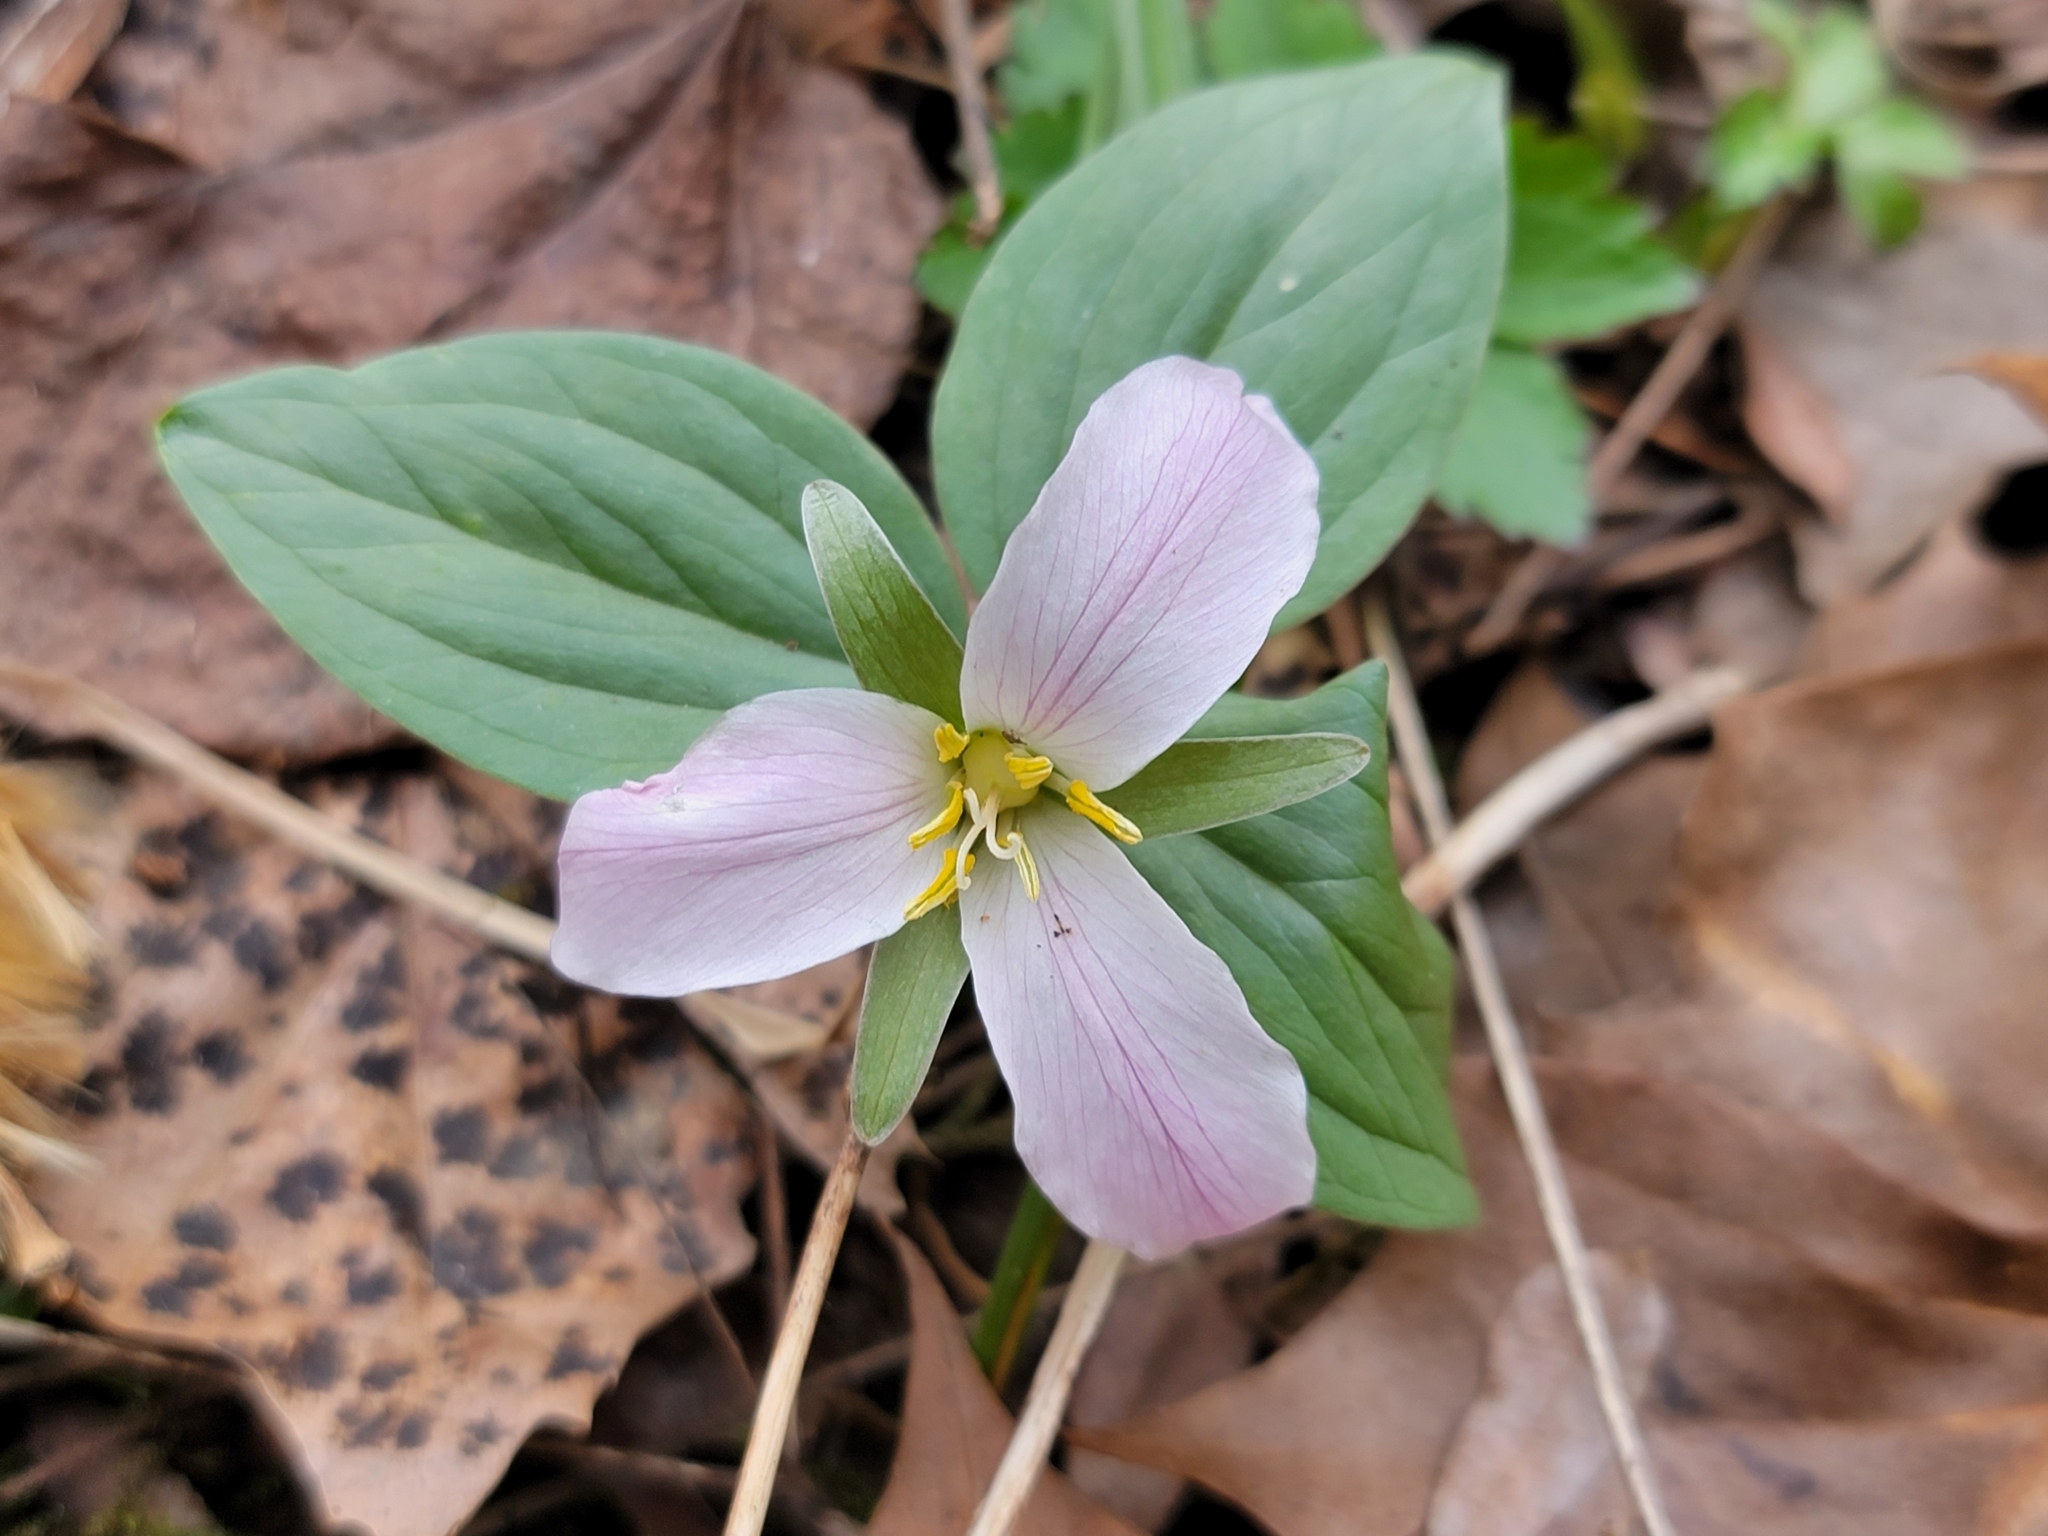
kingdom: Plantae
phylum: Tracheophyta
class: Liliopsida
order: Liliales
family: Melanthiaceae
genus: Trillium
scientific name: Trillium nivale
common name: Dwarf white trillium
